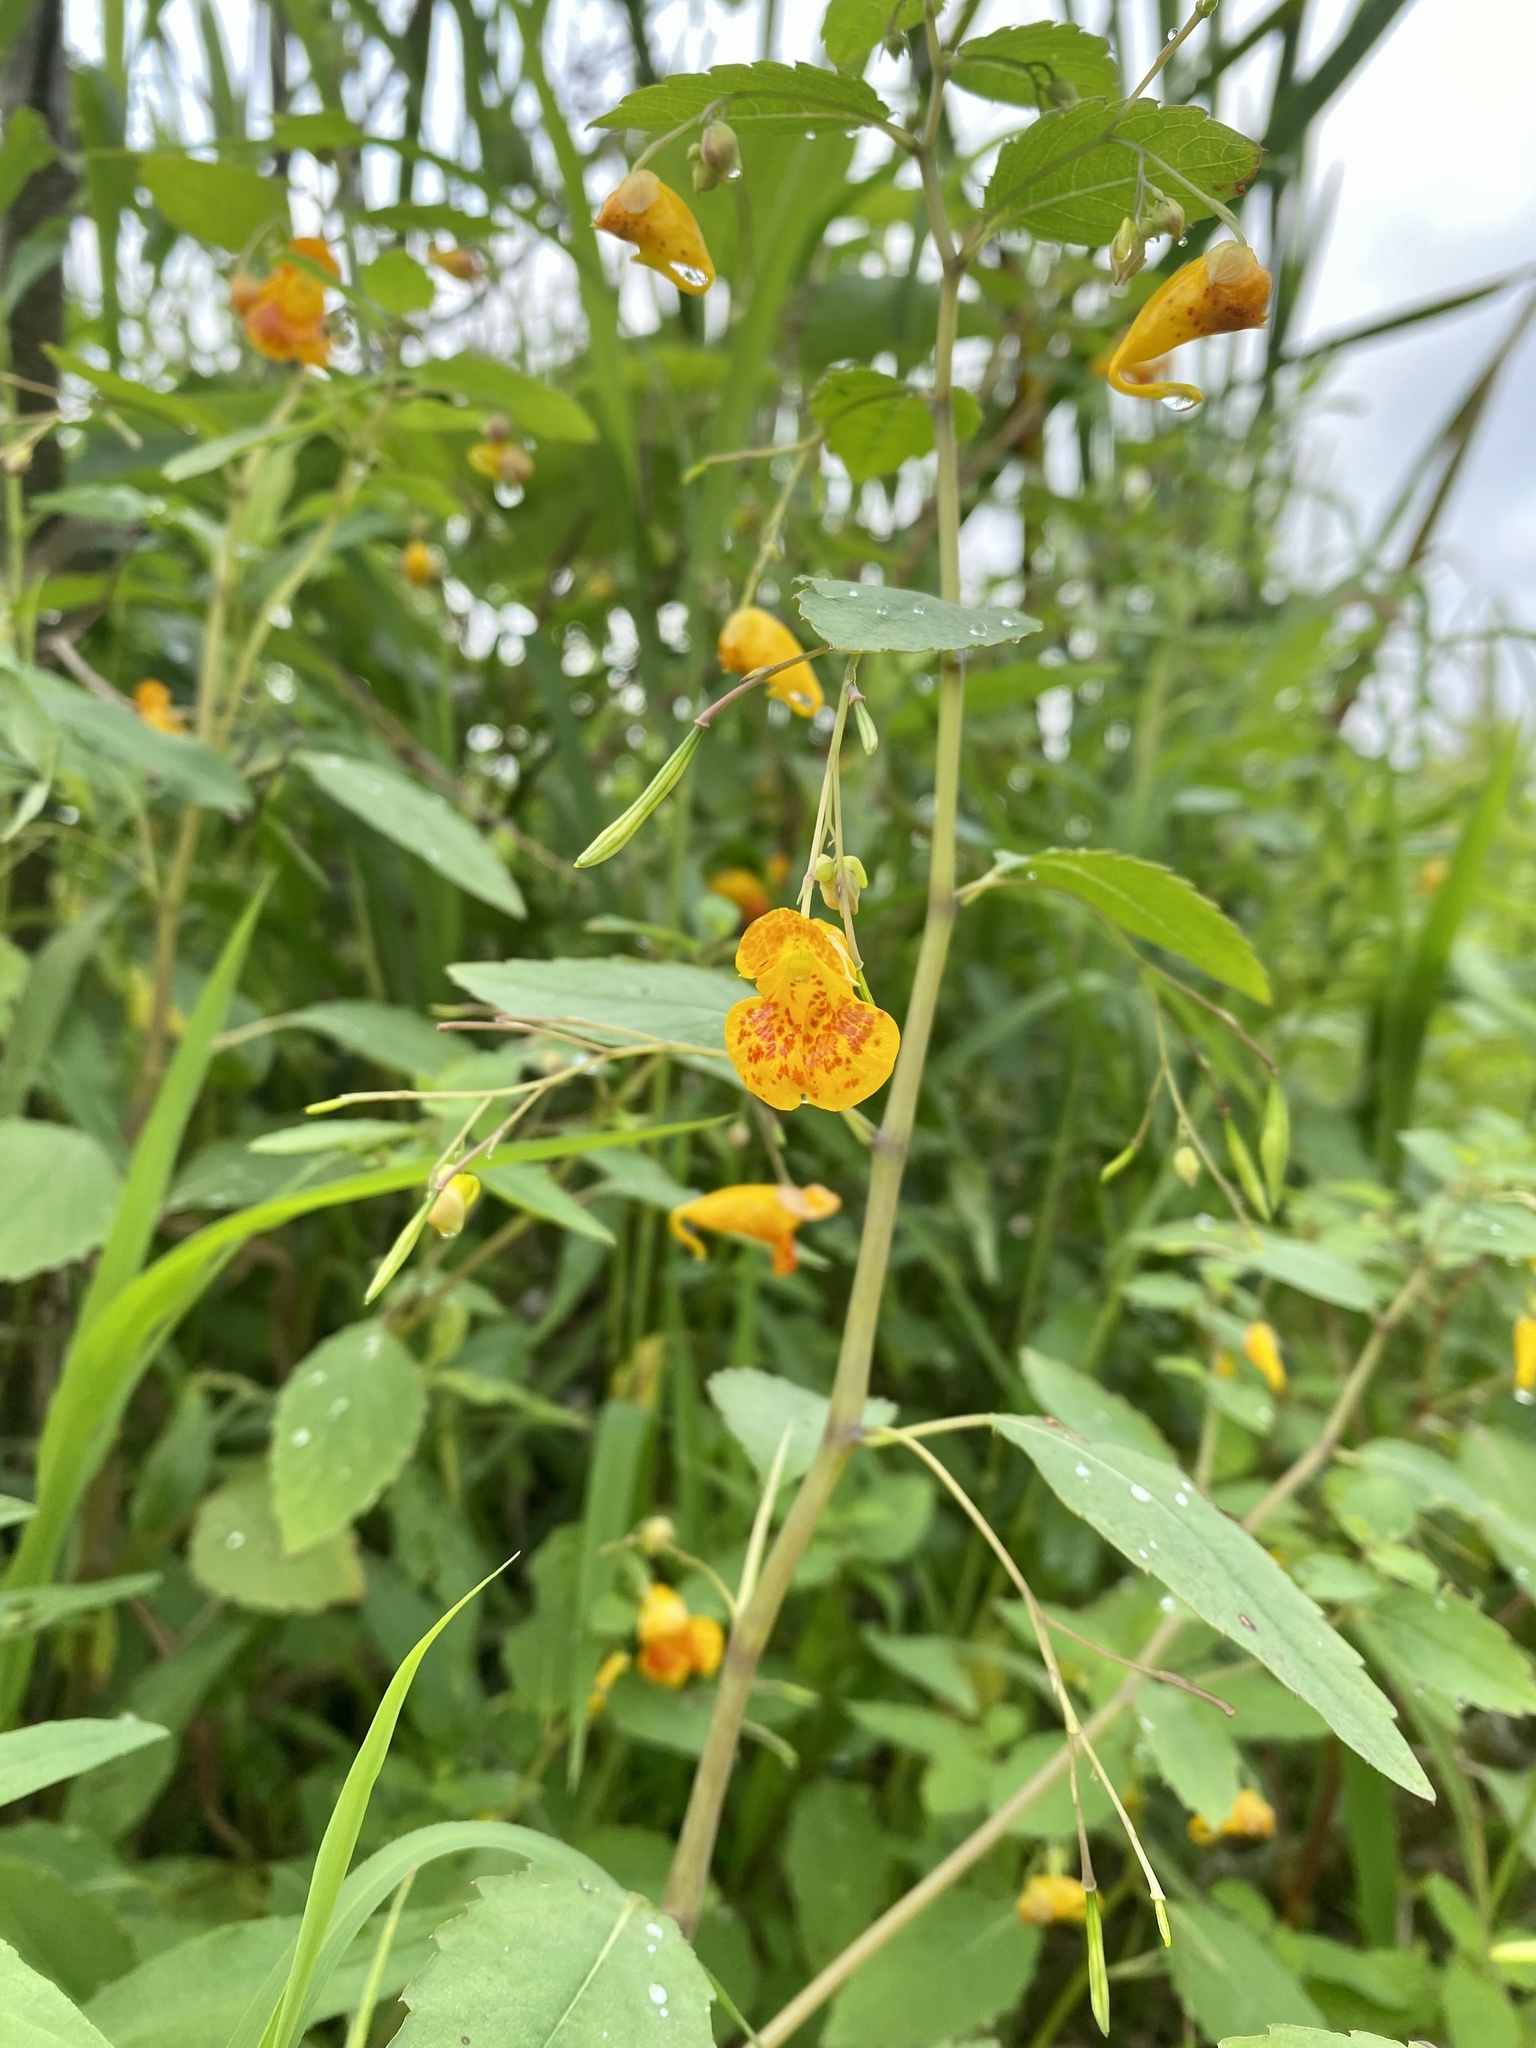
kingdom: Plantae
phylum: Tracheophyta
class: Magnoliopsida
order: Ericales
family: Balsaminaceae
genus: Impatiens
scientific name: Impatiens capensis
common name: Orange balsam
